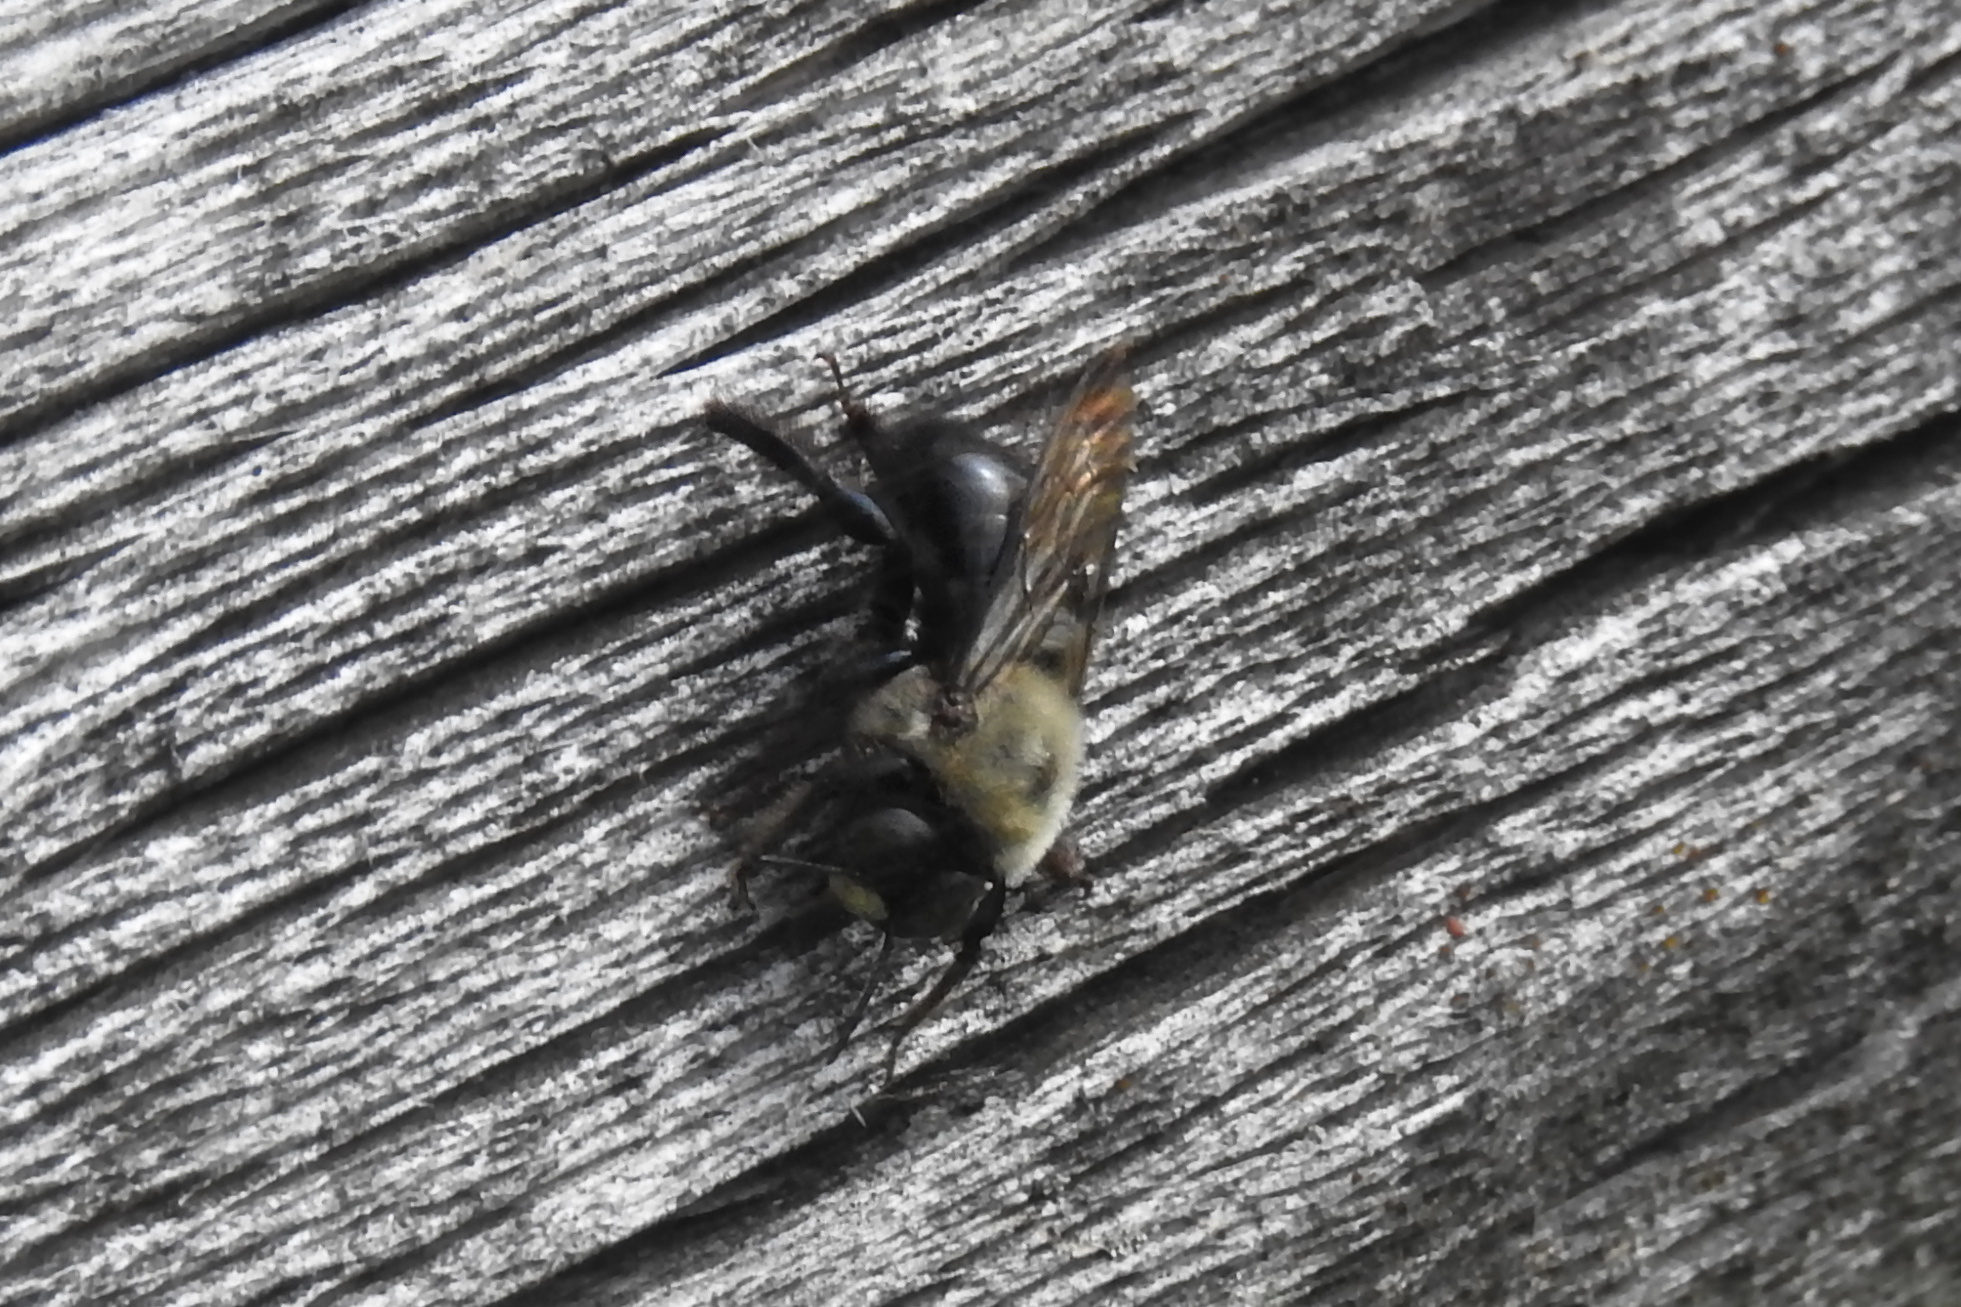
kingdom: Animalia
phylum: Arthropoda
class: Insecta
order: Hymenoptera
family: Apidae
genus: Xylocopa
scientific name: Xylocopa virginica
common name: Carpenter bee
